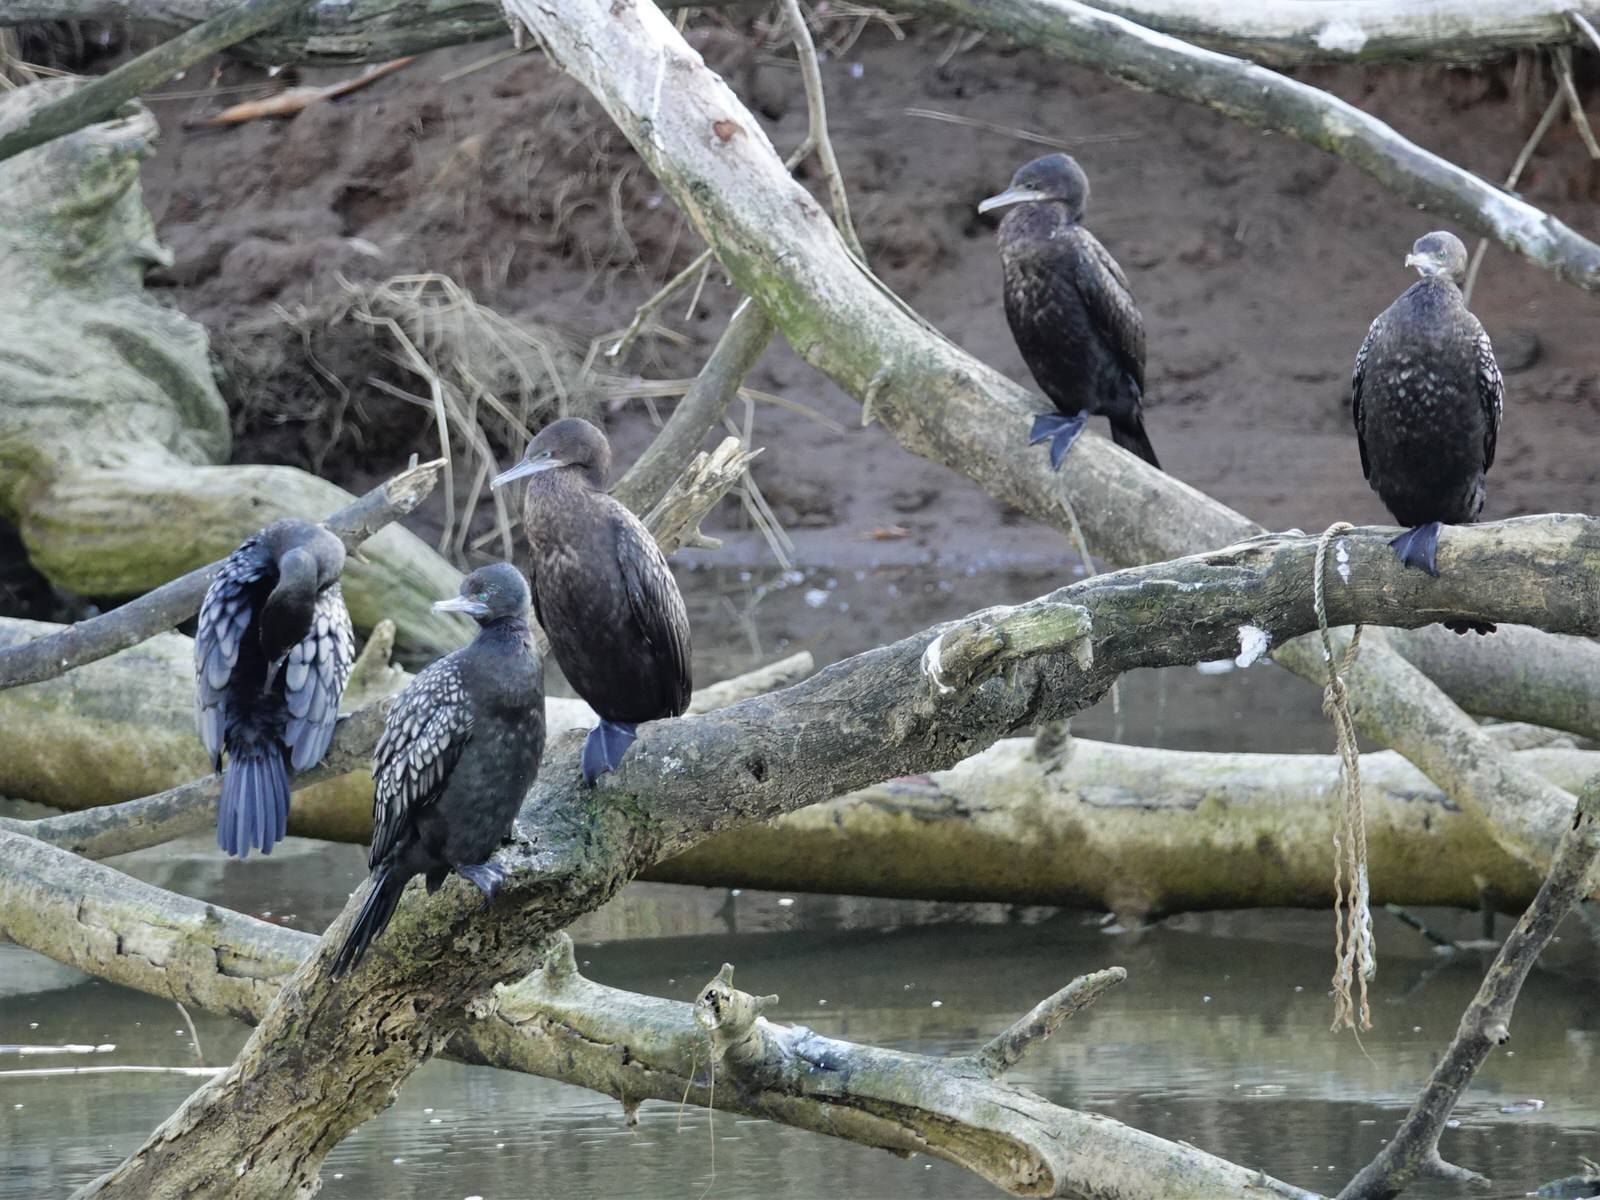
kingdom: Animalia
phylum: Chordata
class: Aves
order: Suliformes
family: Phalacrocoracidae
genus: Phalacrocorax
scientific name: Phalacrocorax sulcirostris
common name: Little black cormorant
